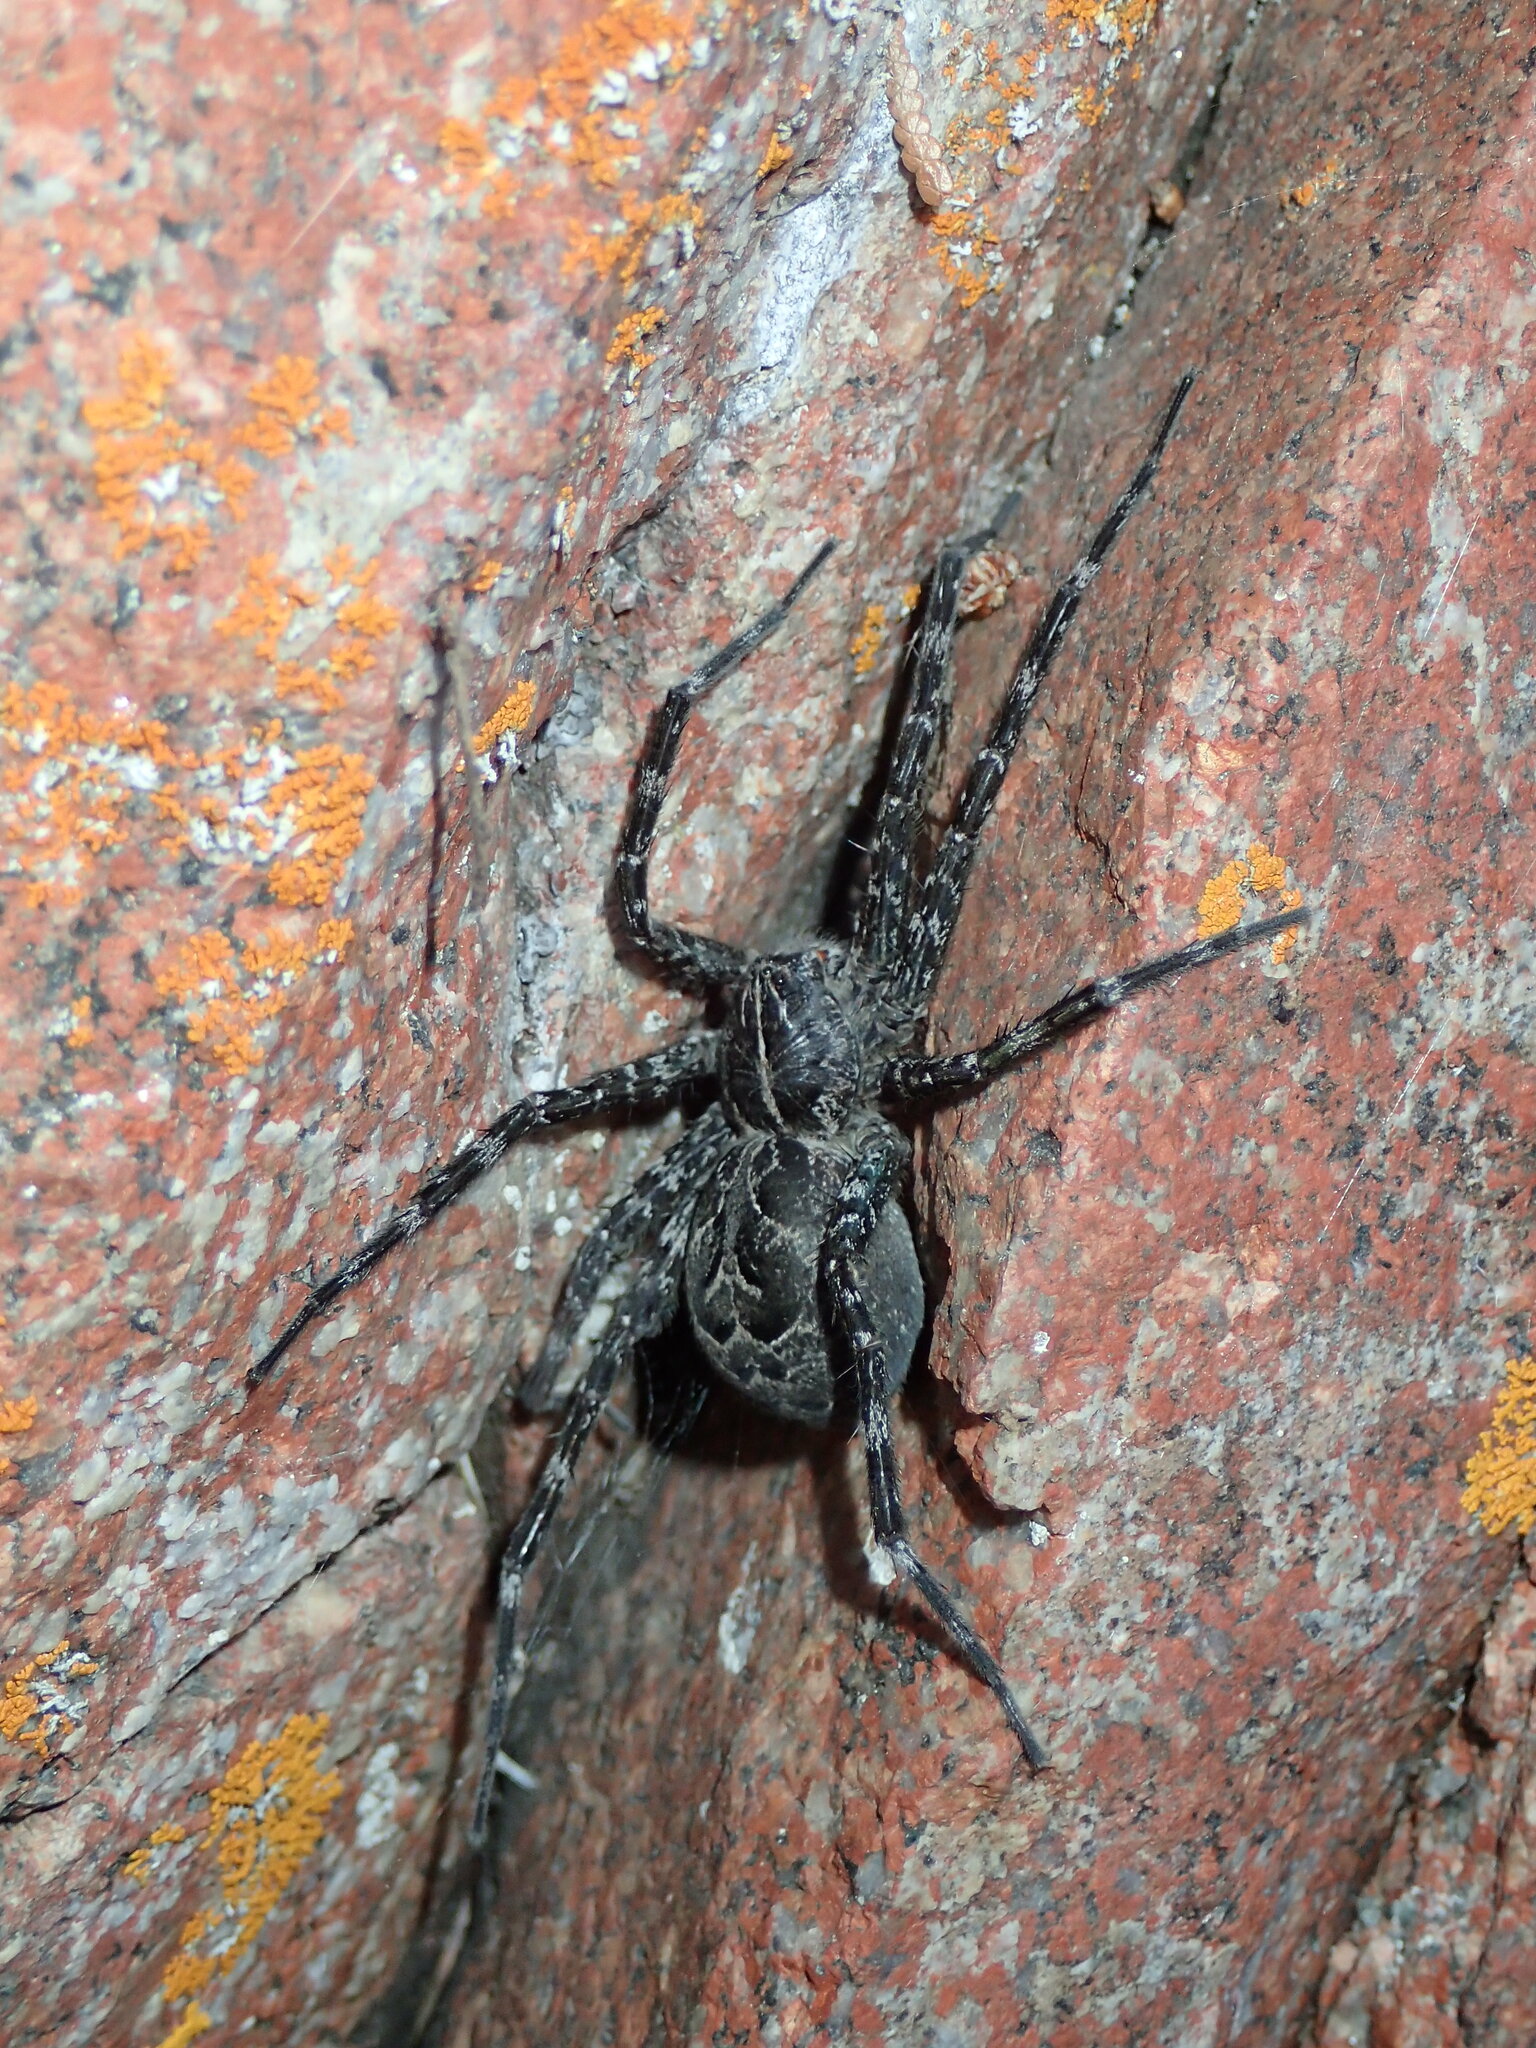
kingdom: Animalia
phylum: Arthropoda
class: Arachnida
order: Araneae
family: Pisauridae
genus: Dolomedes
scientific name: Dolomedes scriptus
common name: Striped fishing spider
